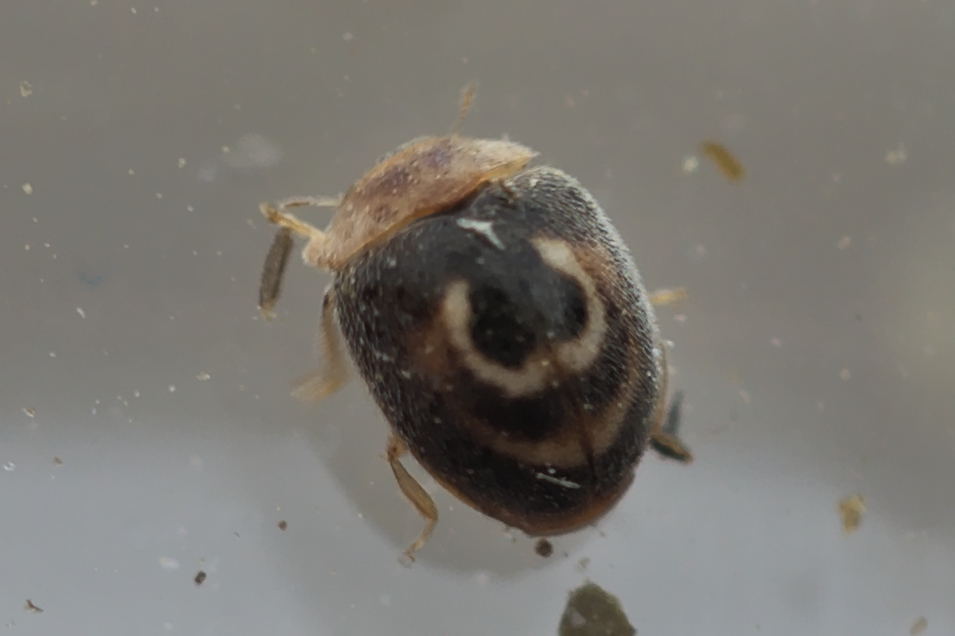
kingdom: Animalia
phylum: Arthropoda
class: Insecta
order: Coleoptera
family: Coccinellidae
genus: Clitostethus
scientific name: Clitostethus arcuatus
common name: Ladybird beetle
